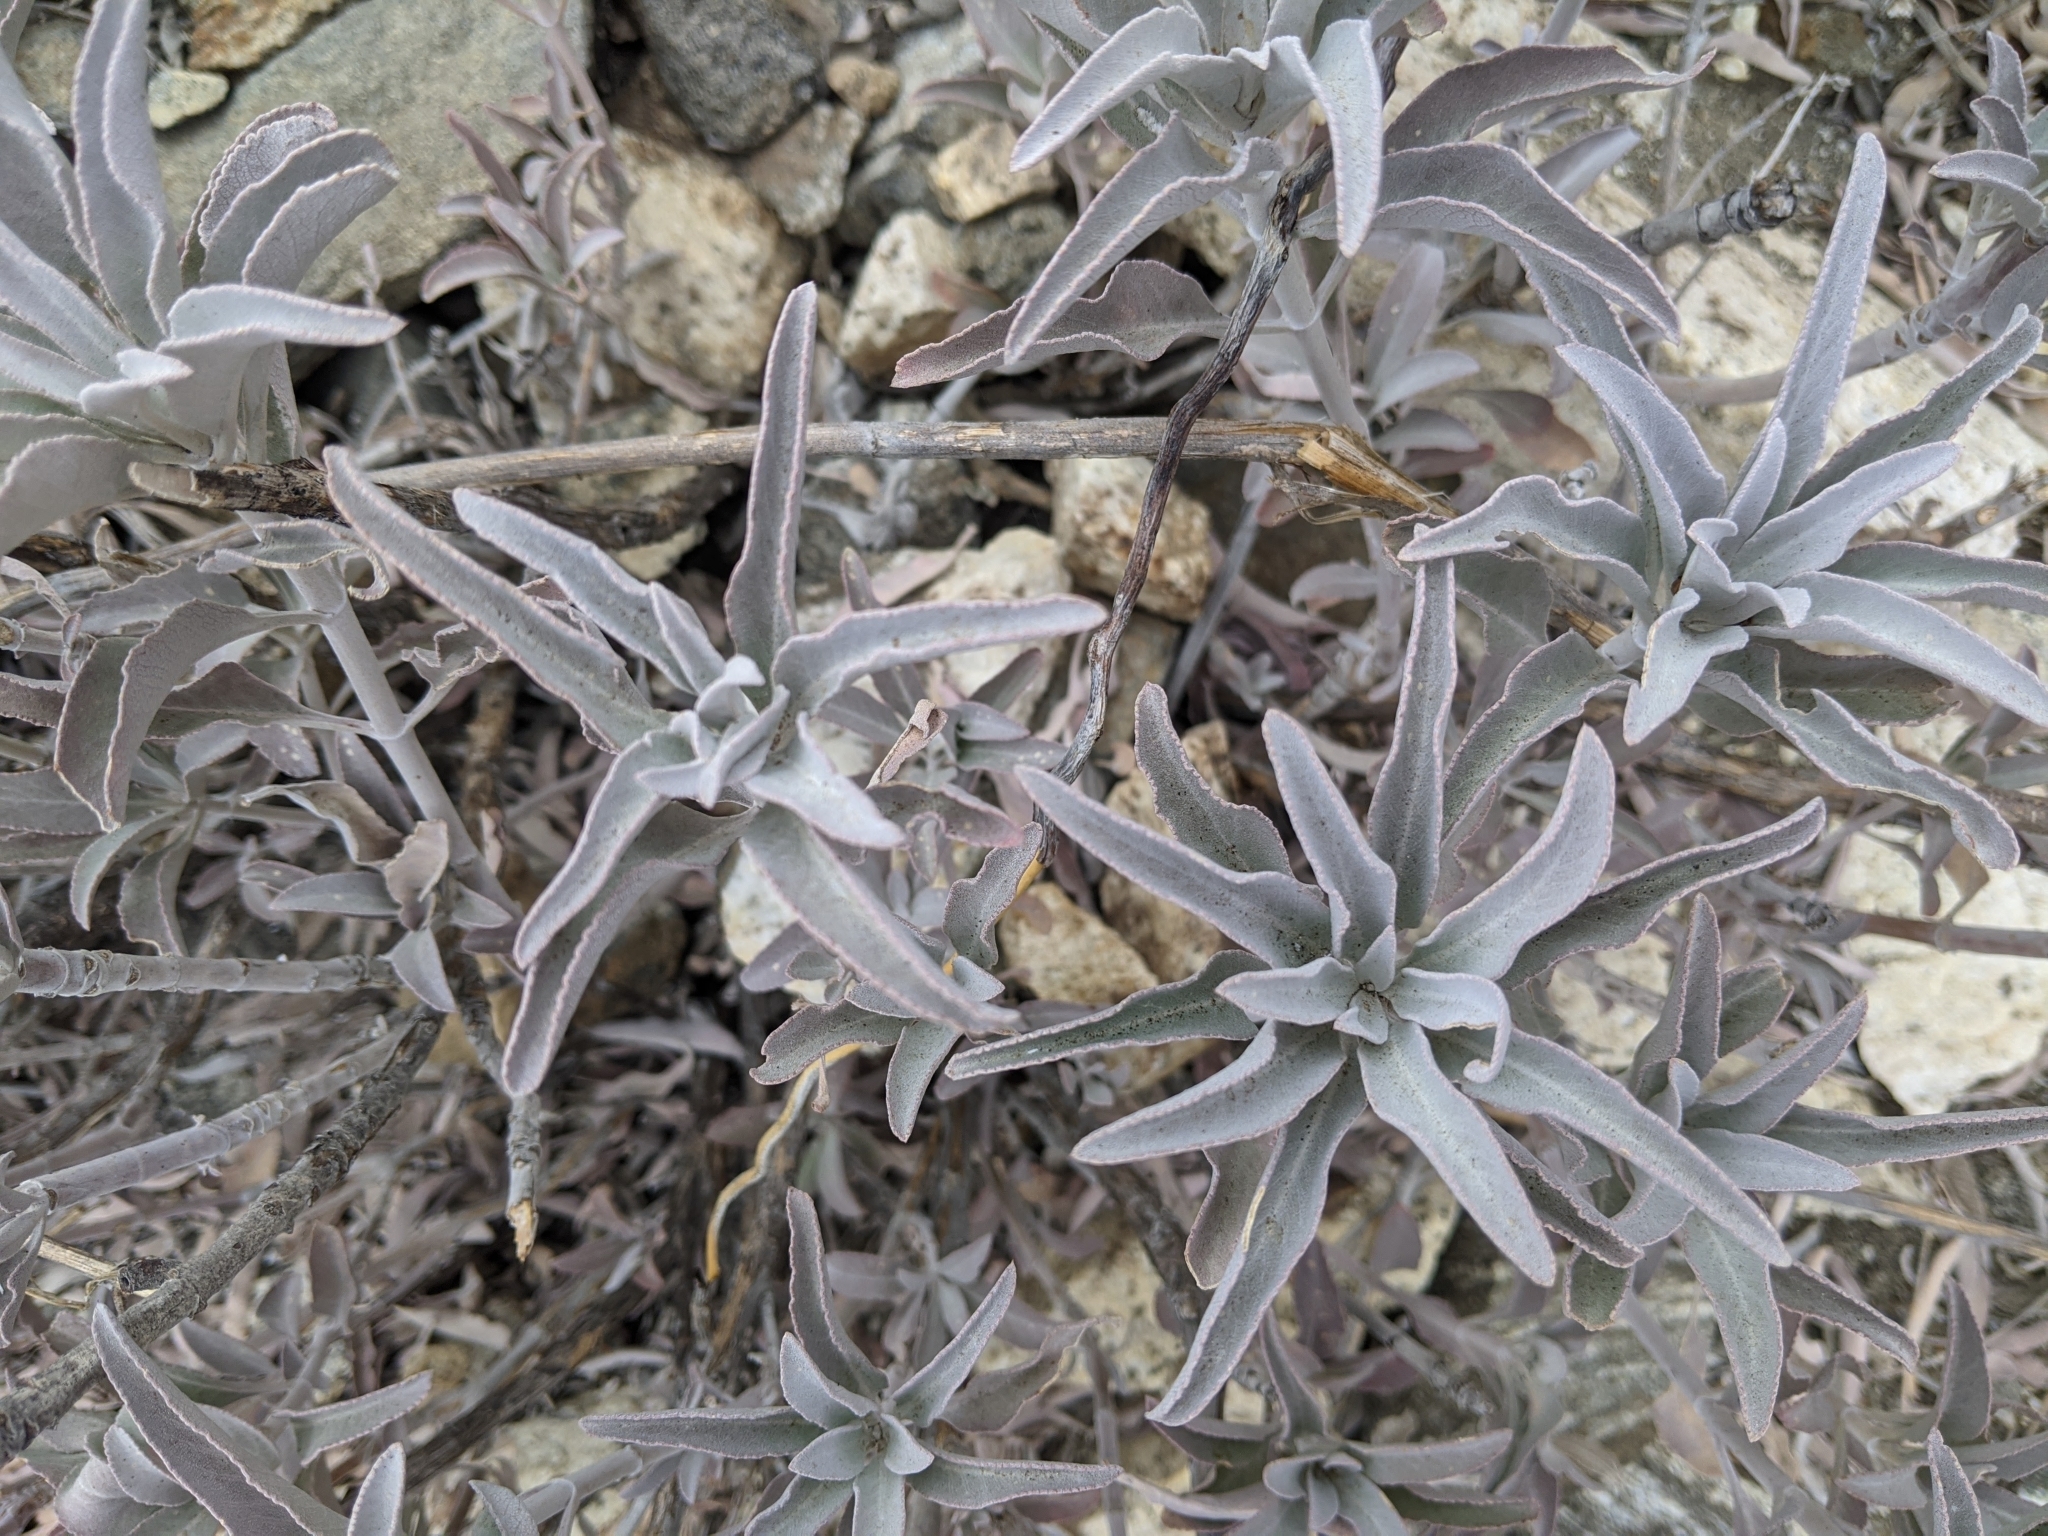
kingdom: Plantae
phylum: Tracheophyta
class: Magnoliopsida
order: Lamiales
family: Lamiaceae
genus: Salvia
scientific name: Salvia apiana
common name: White sage
